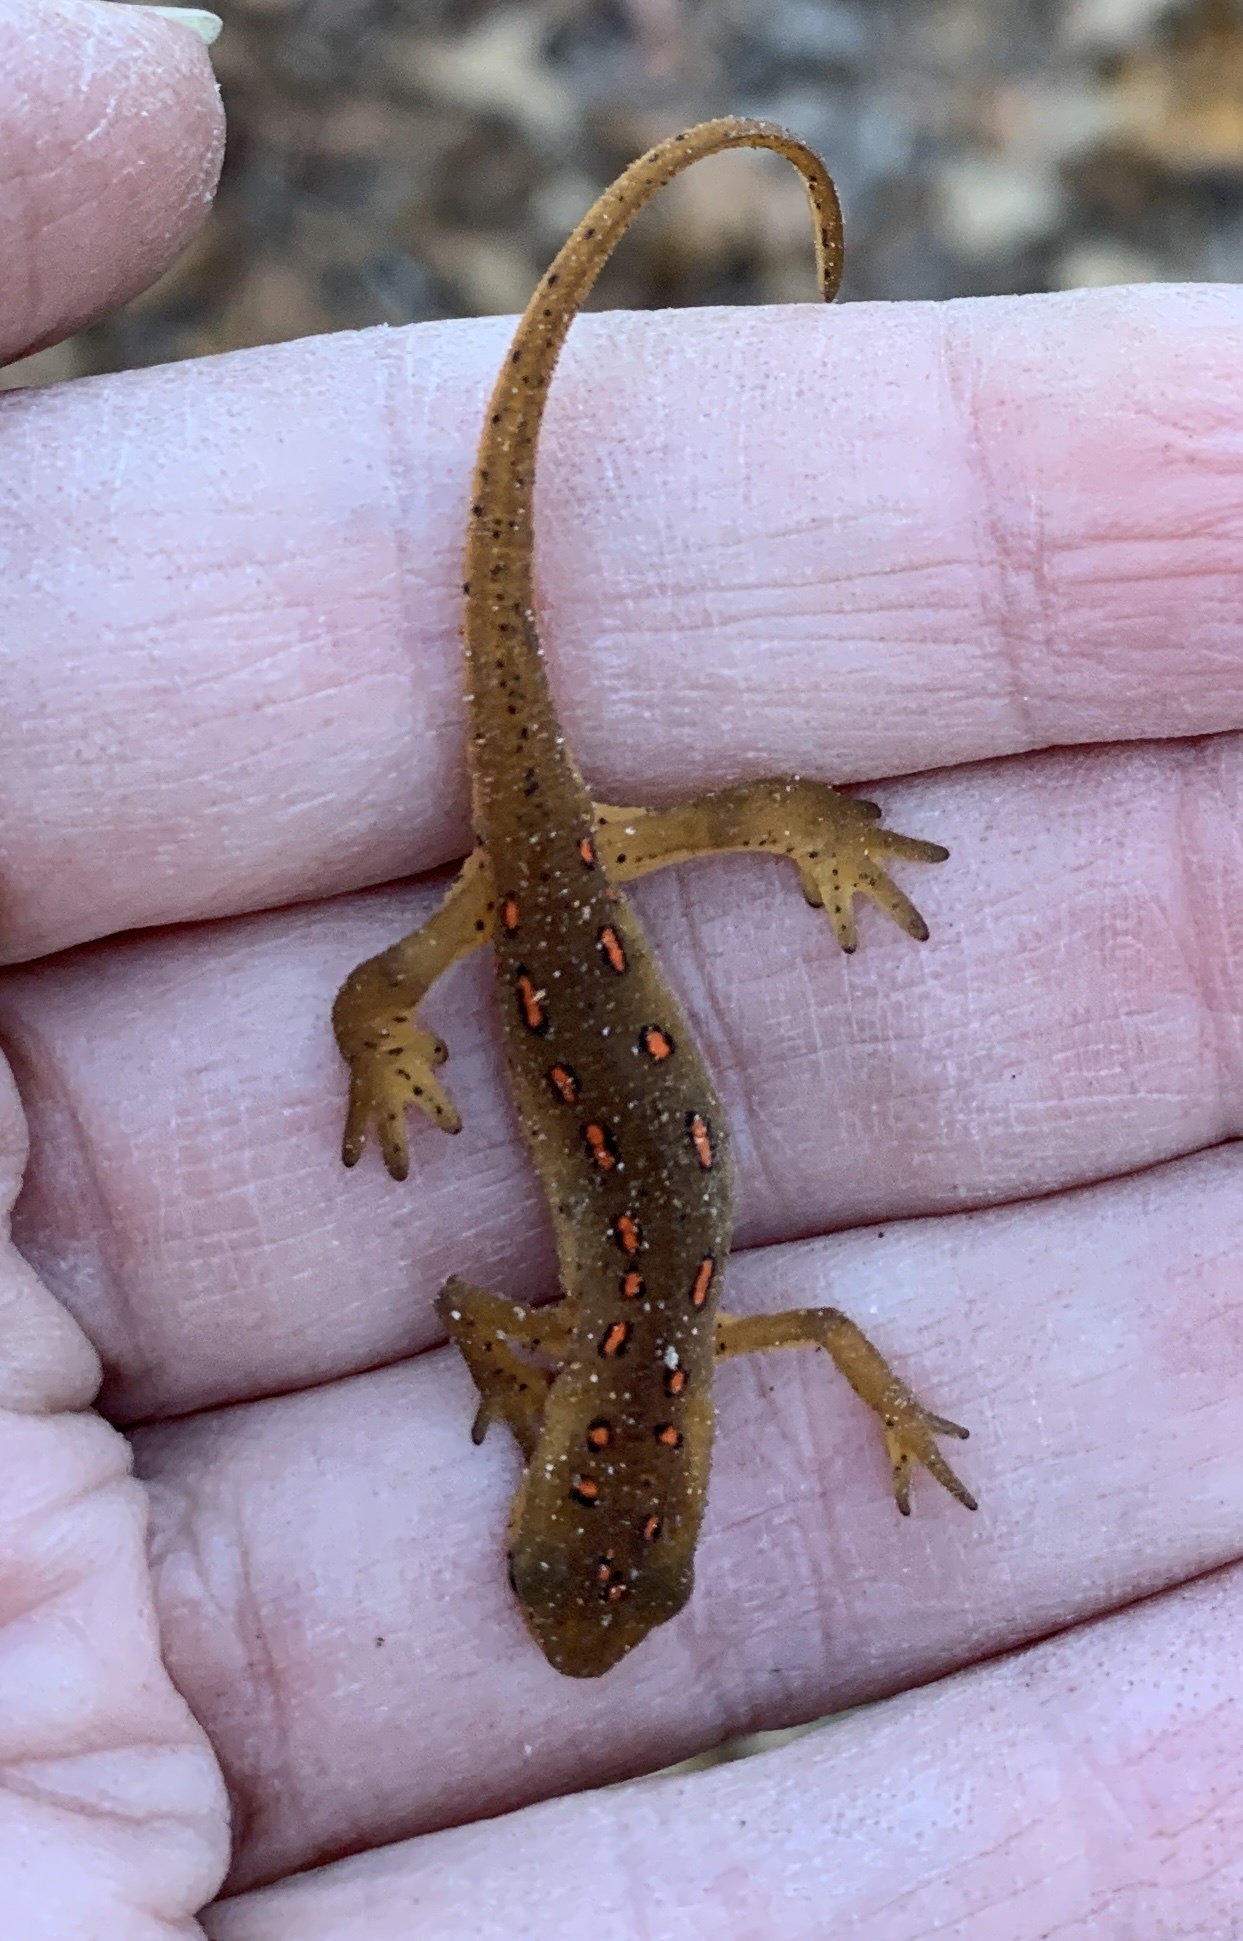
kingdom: Animalia
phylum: Chordata
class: Amphibia
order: Caudata
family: Salamandridae
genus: Notophthalmus
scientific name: Notophthalmus viridescens
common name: Eastern newt
